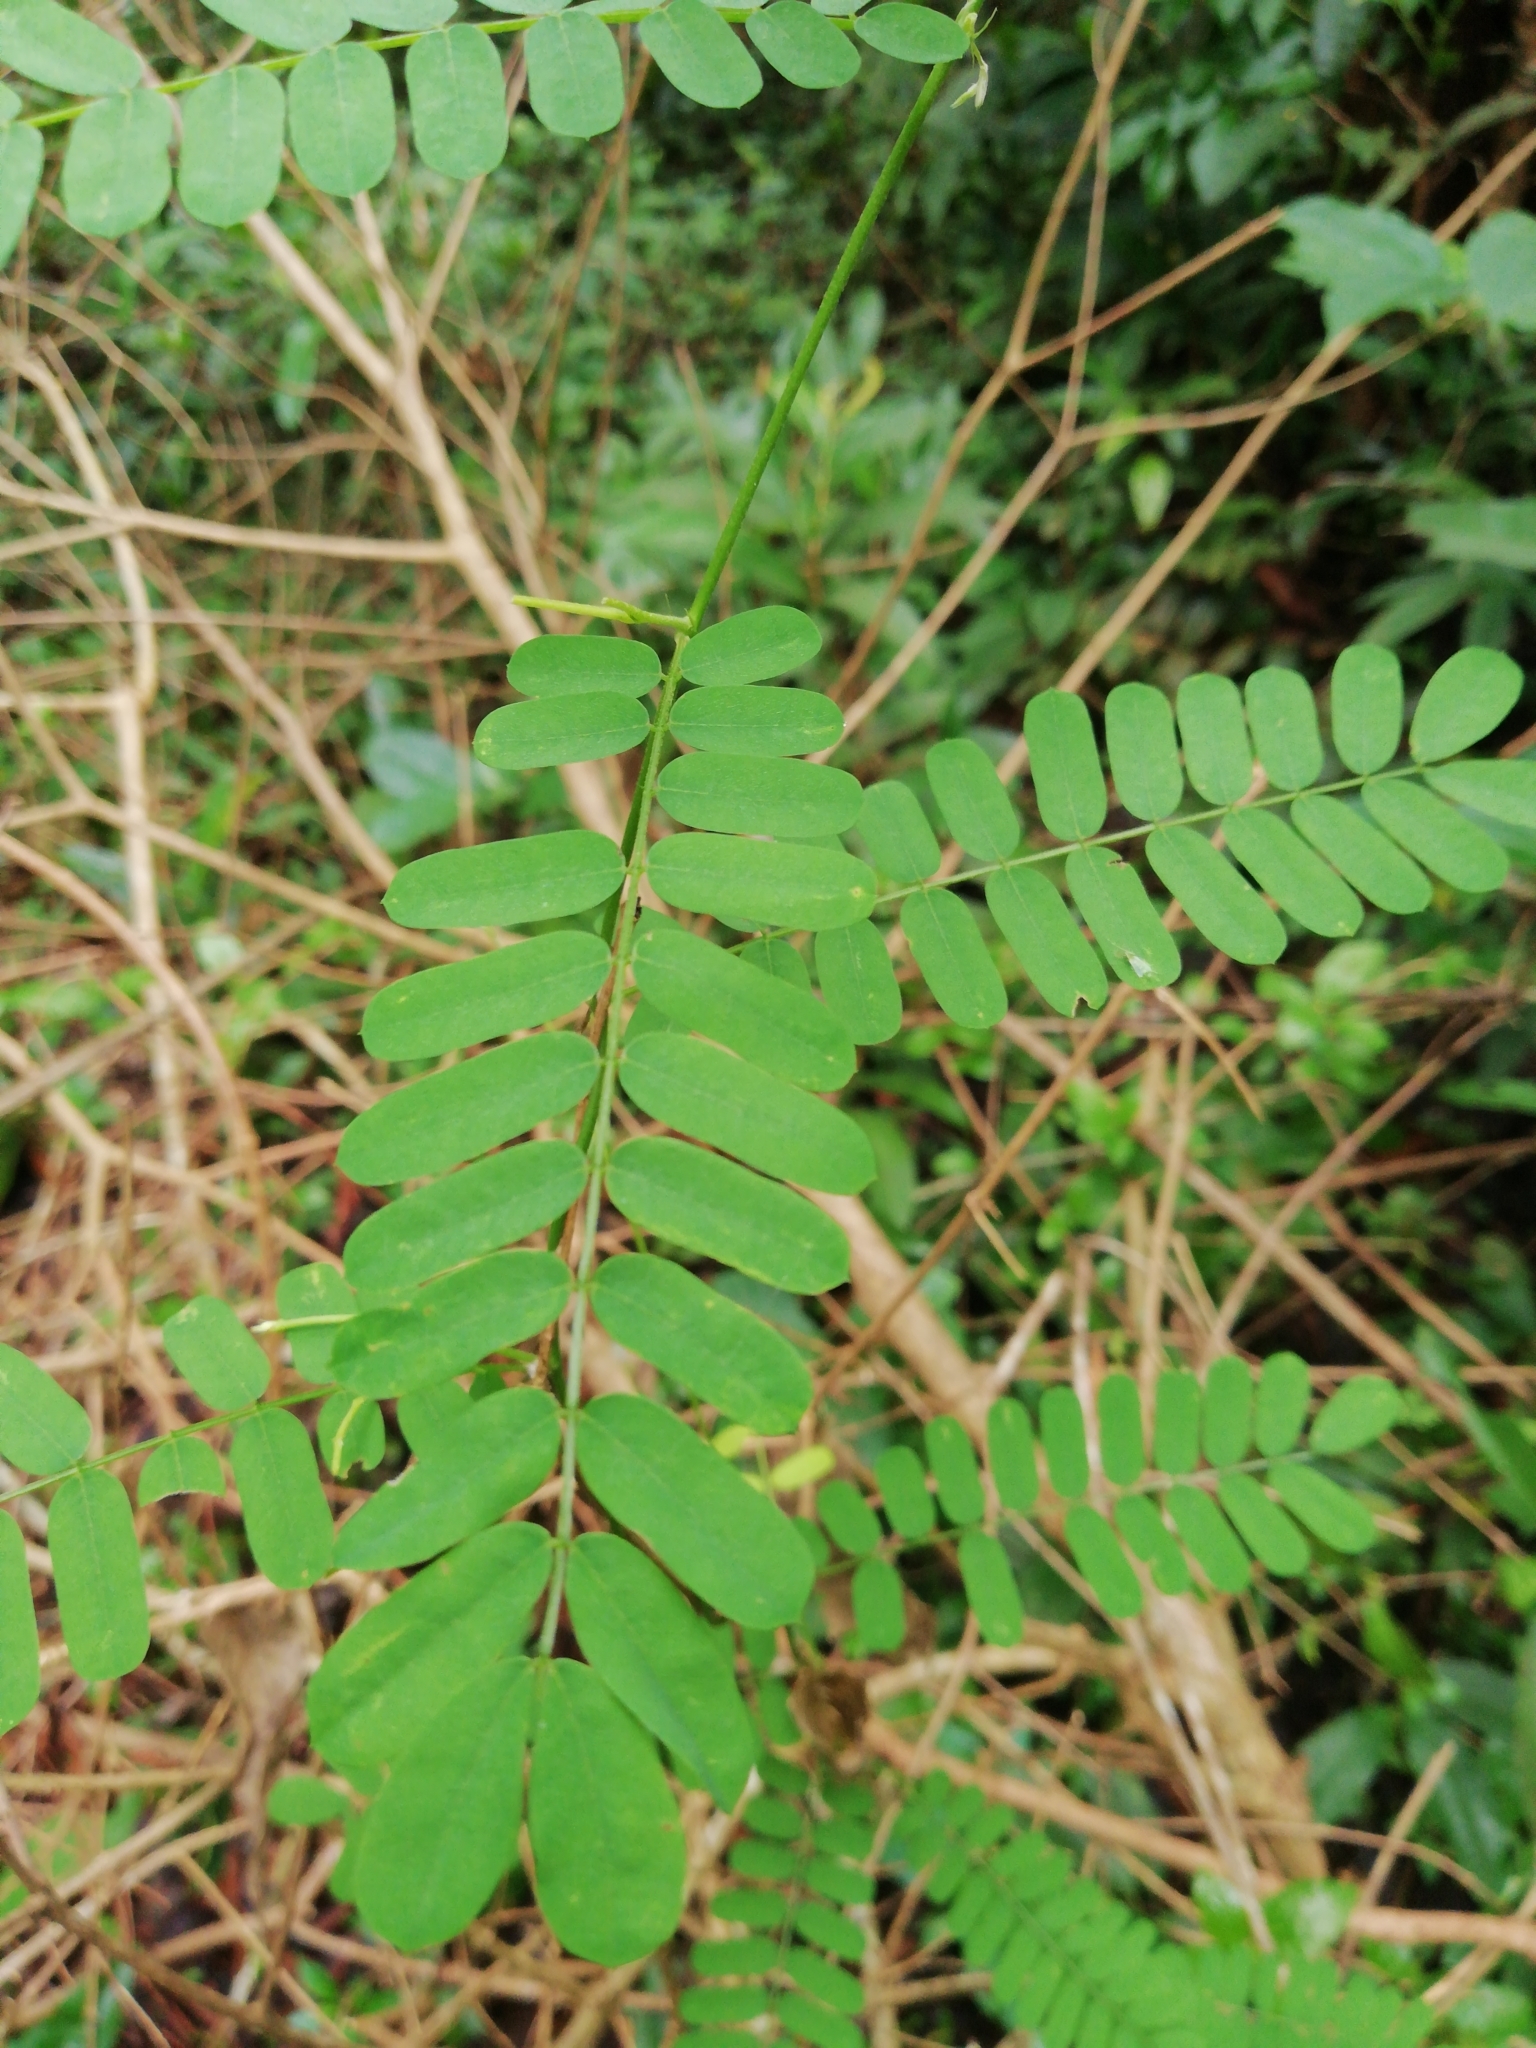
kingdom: Plantae
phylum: Tracheophyta
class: Magnoliopsida
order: Fabales
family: Fabaceae
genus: Abrus
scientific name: Abrus precatorius
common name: Rosarypea
